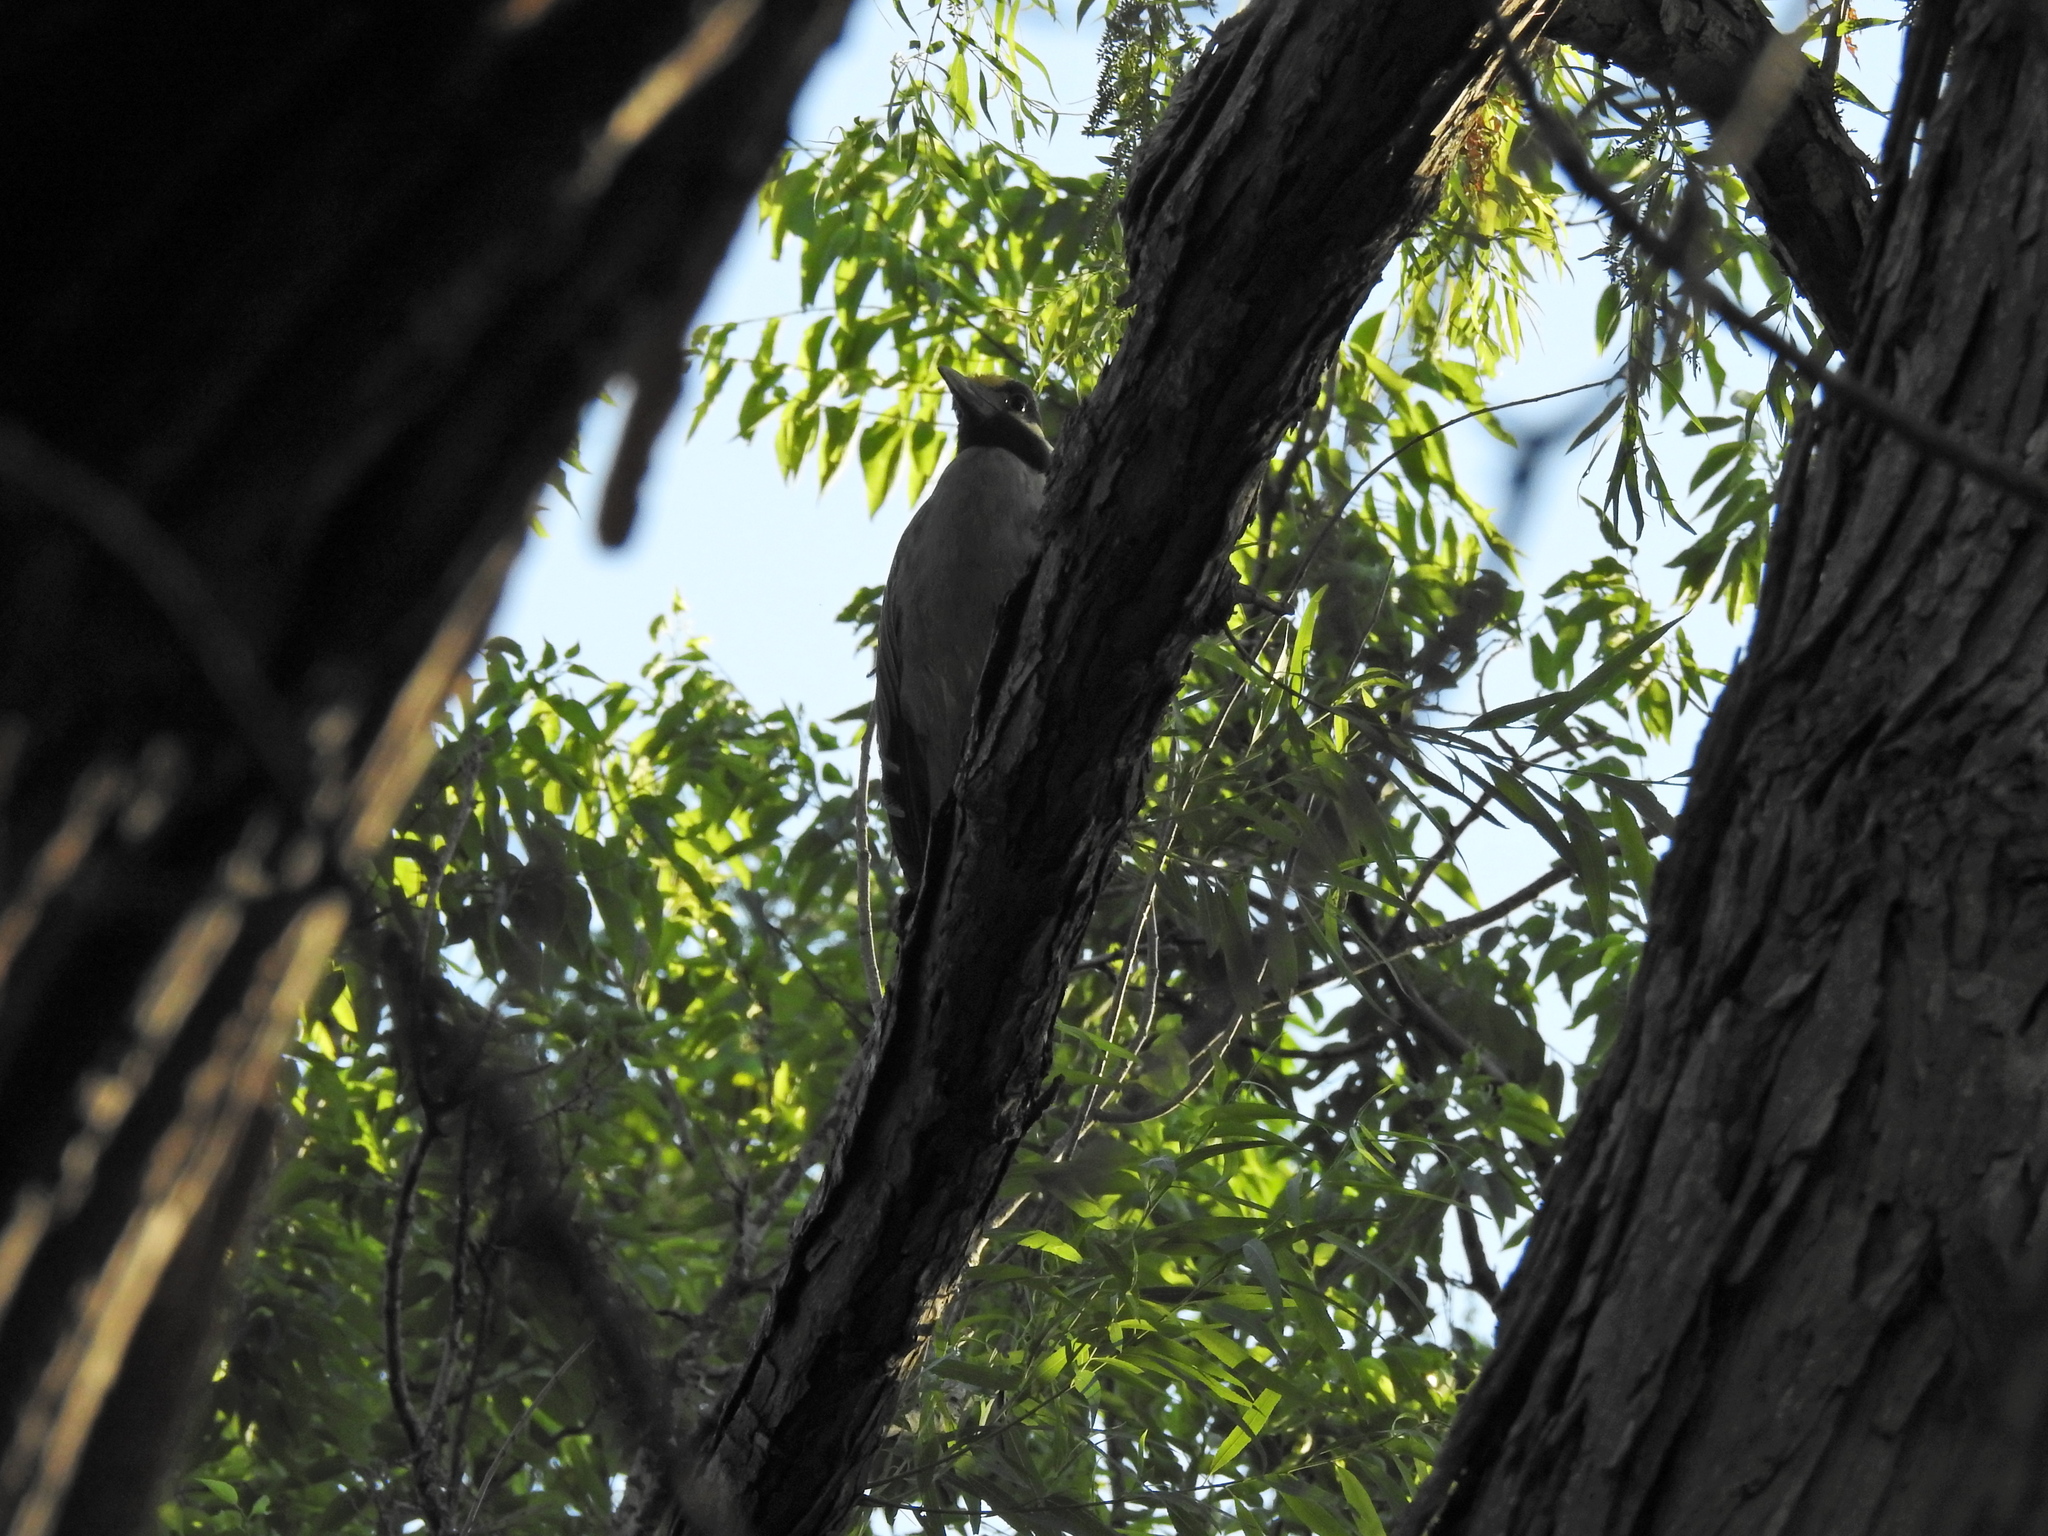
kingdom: Animalia
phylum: Chordata
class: Aves
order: Pelecaniformes
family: Ardeidae
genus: Nyctanassa
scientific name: Nyctanassa violacea
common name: Yellow-crowned night heron
